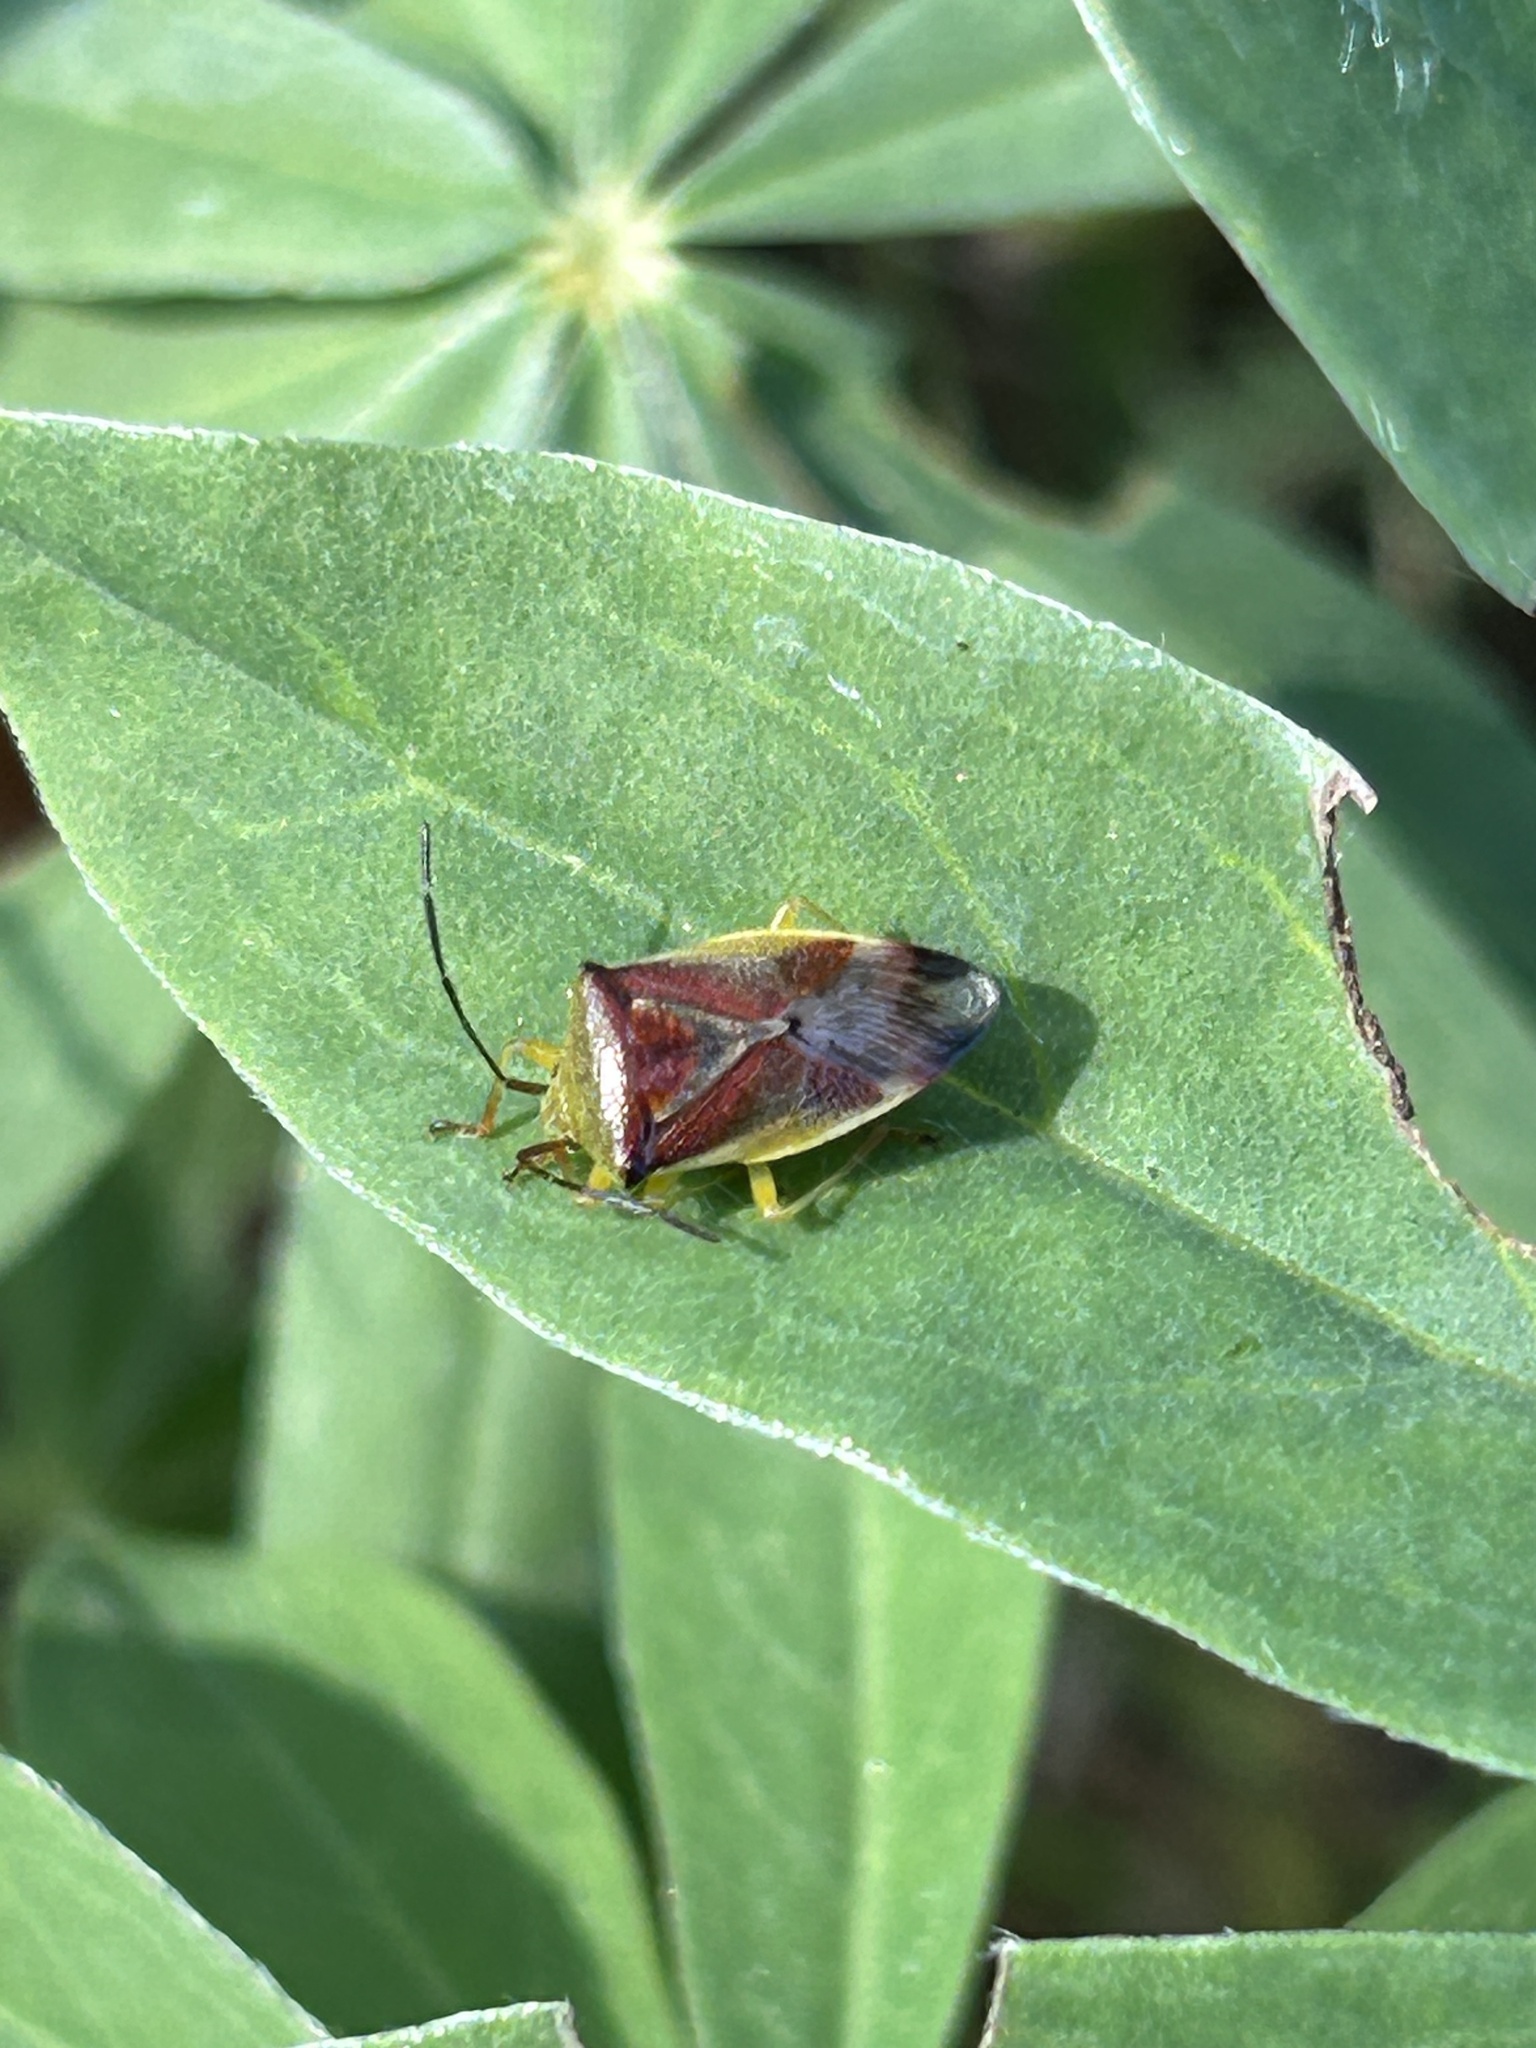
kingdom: Animalia
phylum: Arthropoda
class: Insecta
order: Hemiptera
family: Acanthosomatidae
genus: Elasmostethus
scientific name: Elasmostethus
